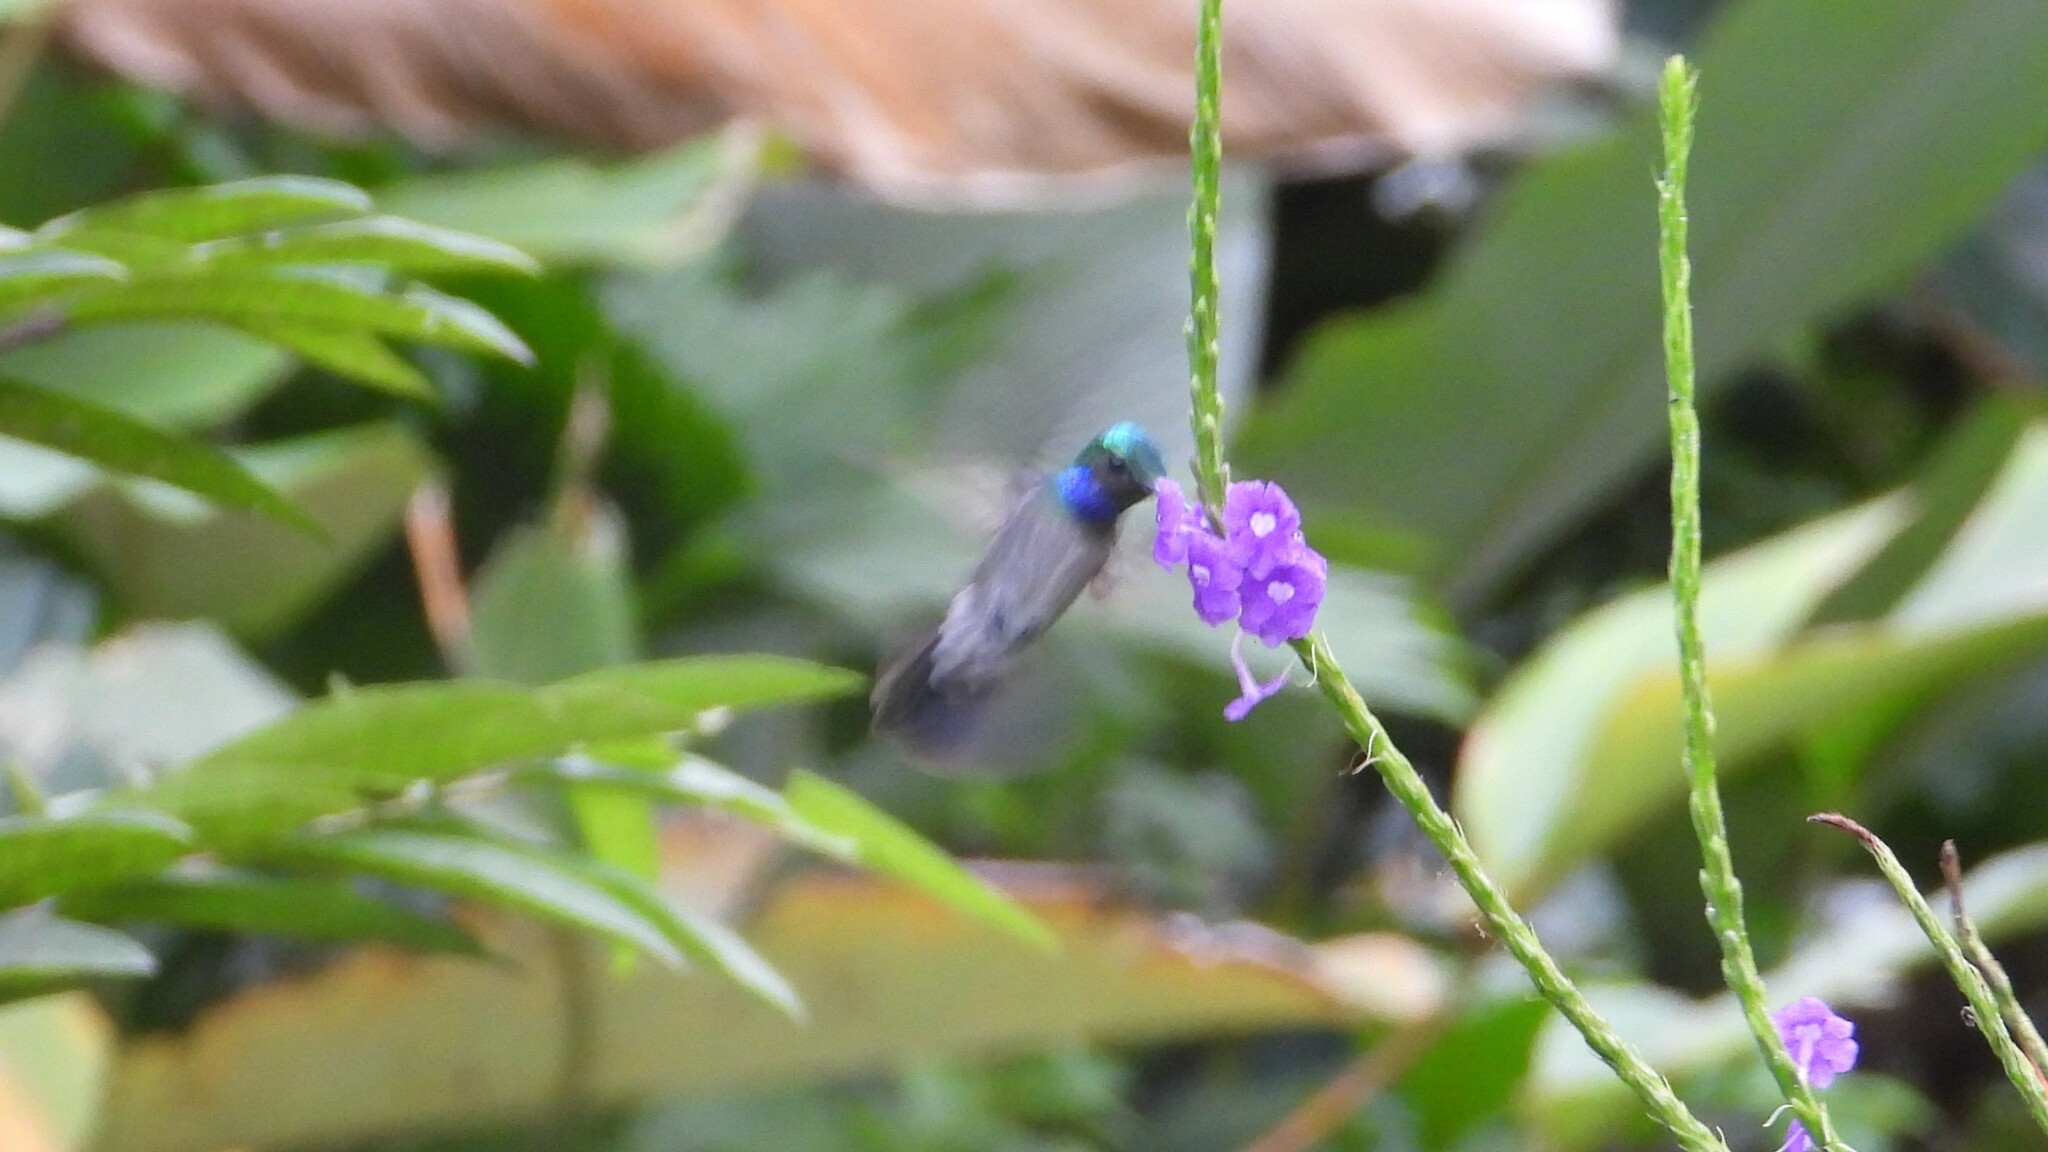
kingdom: Animalia
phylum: Chordata
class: Aves
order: Apodiformes
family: Trochilidae
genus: Polyerata
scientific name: Polyerata decora
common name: Charming hummingbird
